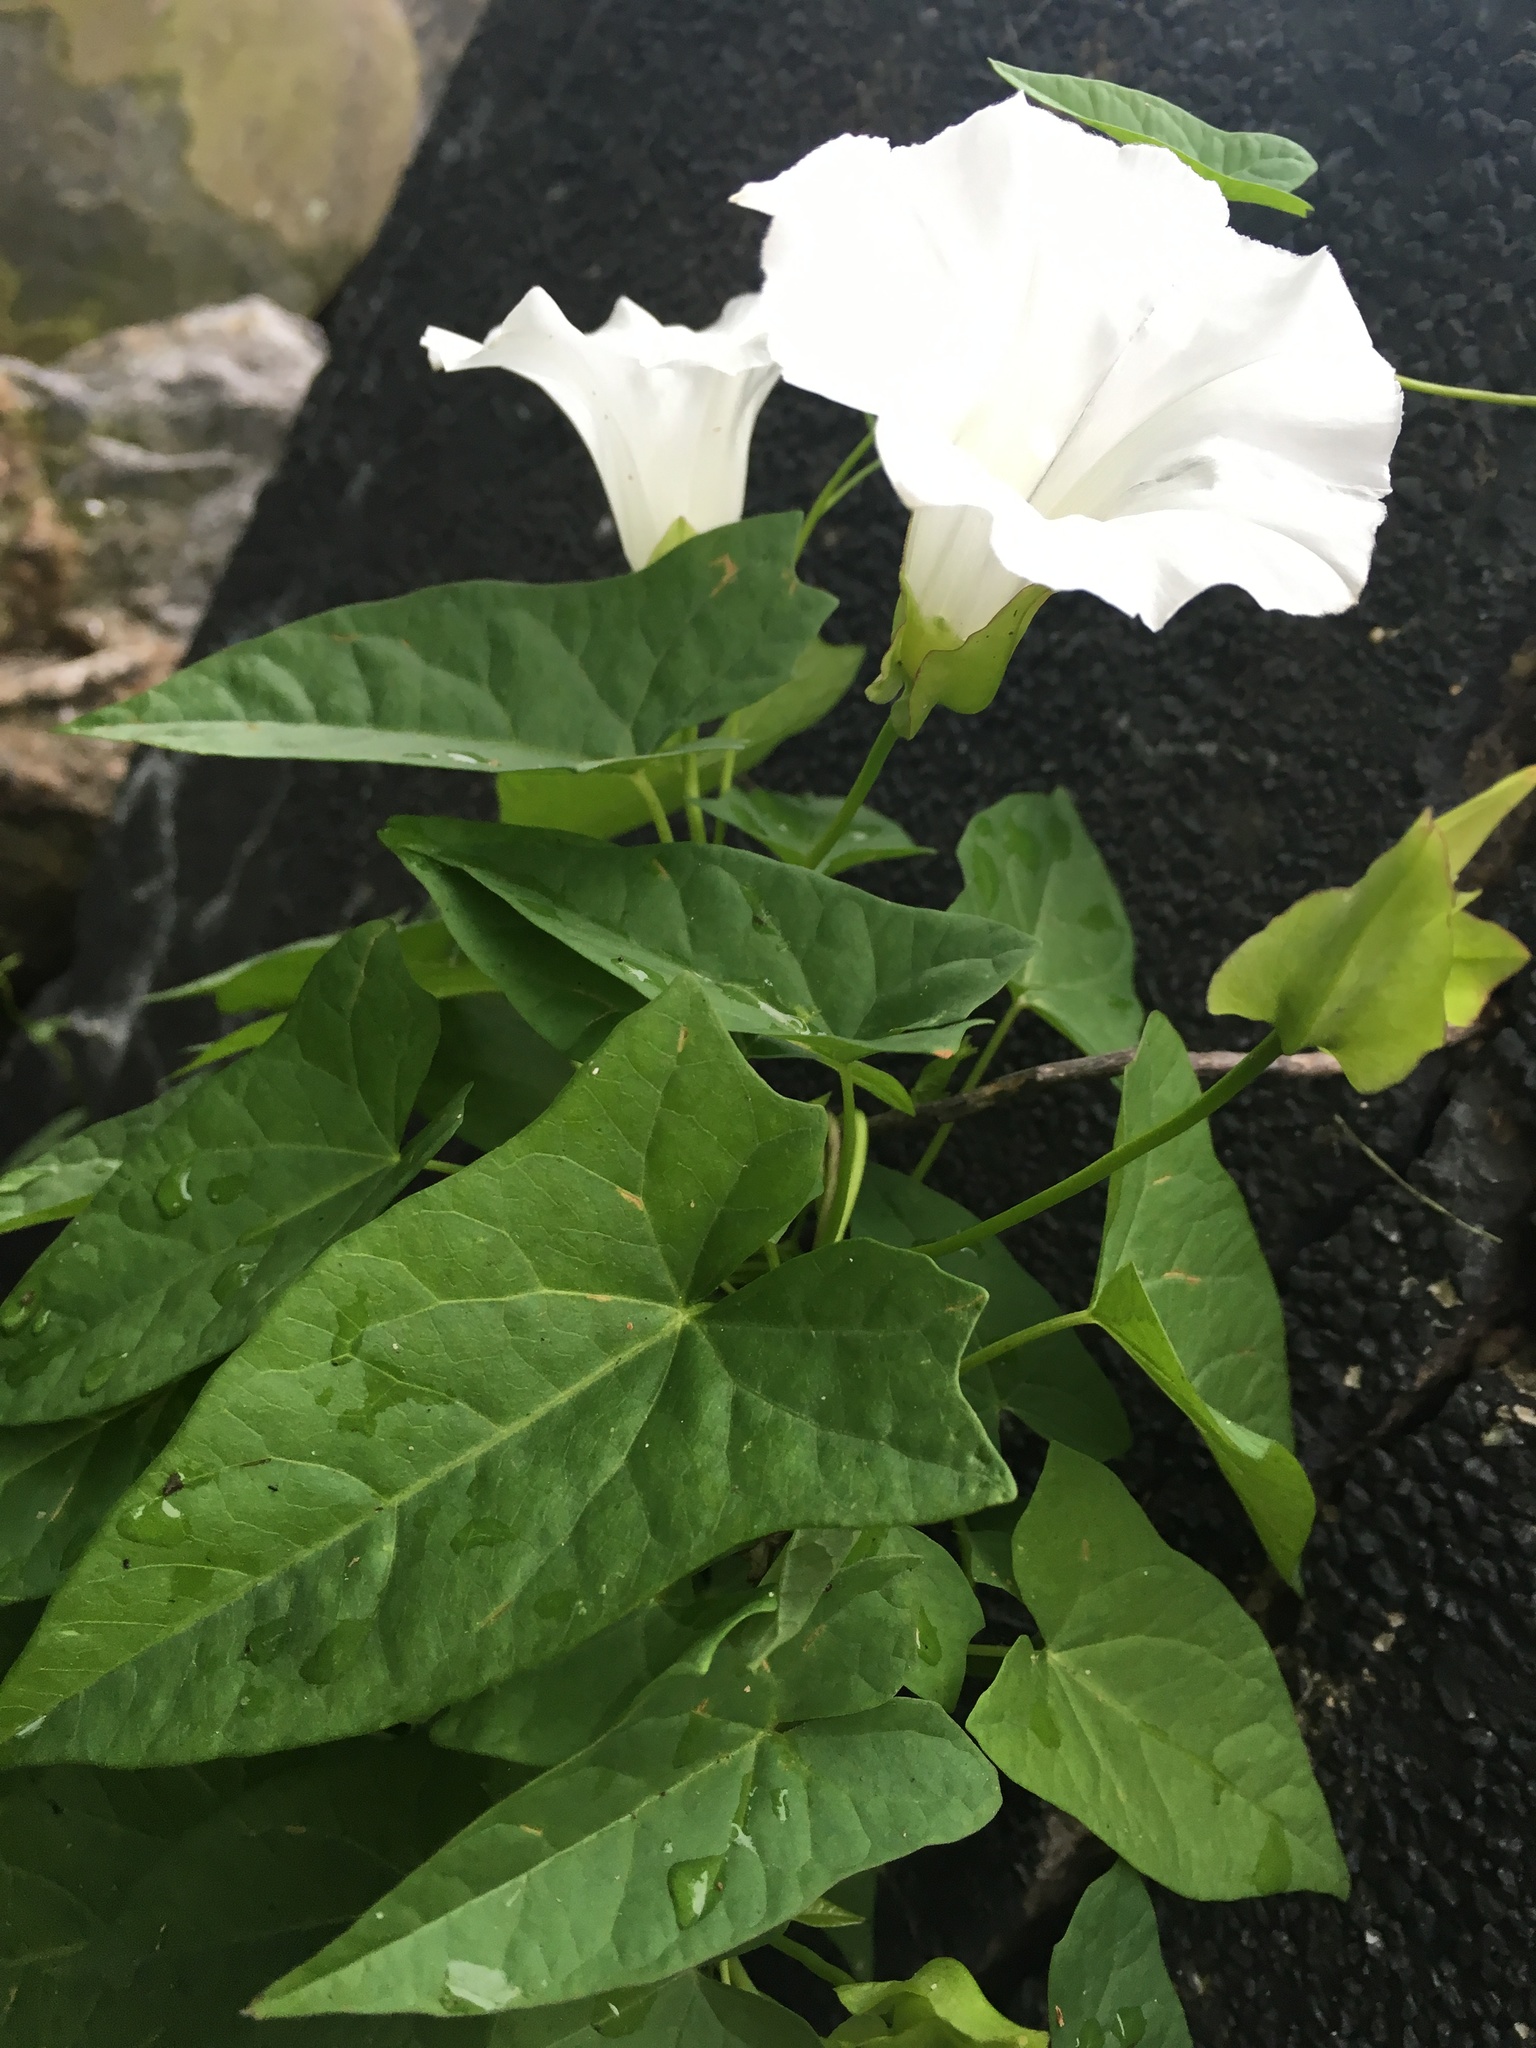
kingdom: Plantae
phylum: Tracheophyta
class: Magnoliopsida
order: Solanales
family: Convolvulaceae
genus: Calystegia
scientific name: Calystegia sepium
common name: Hedge bindweed
